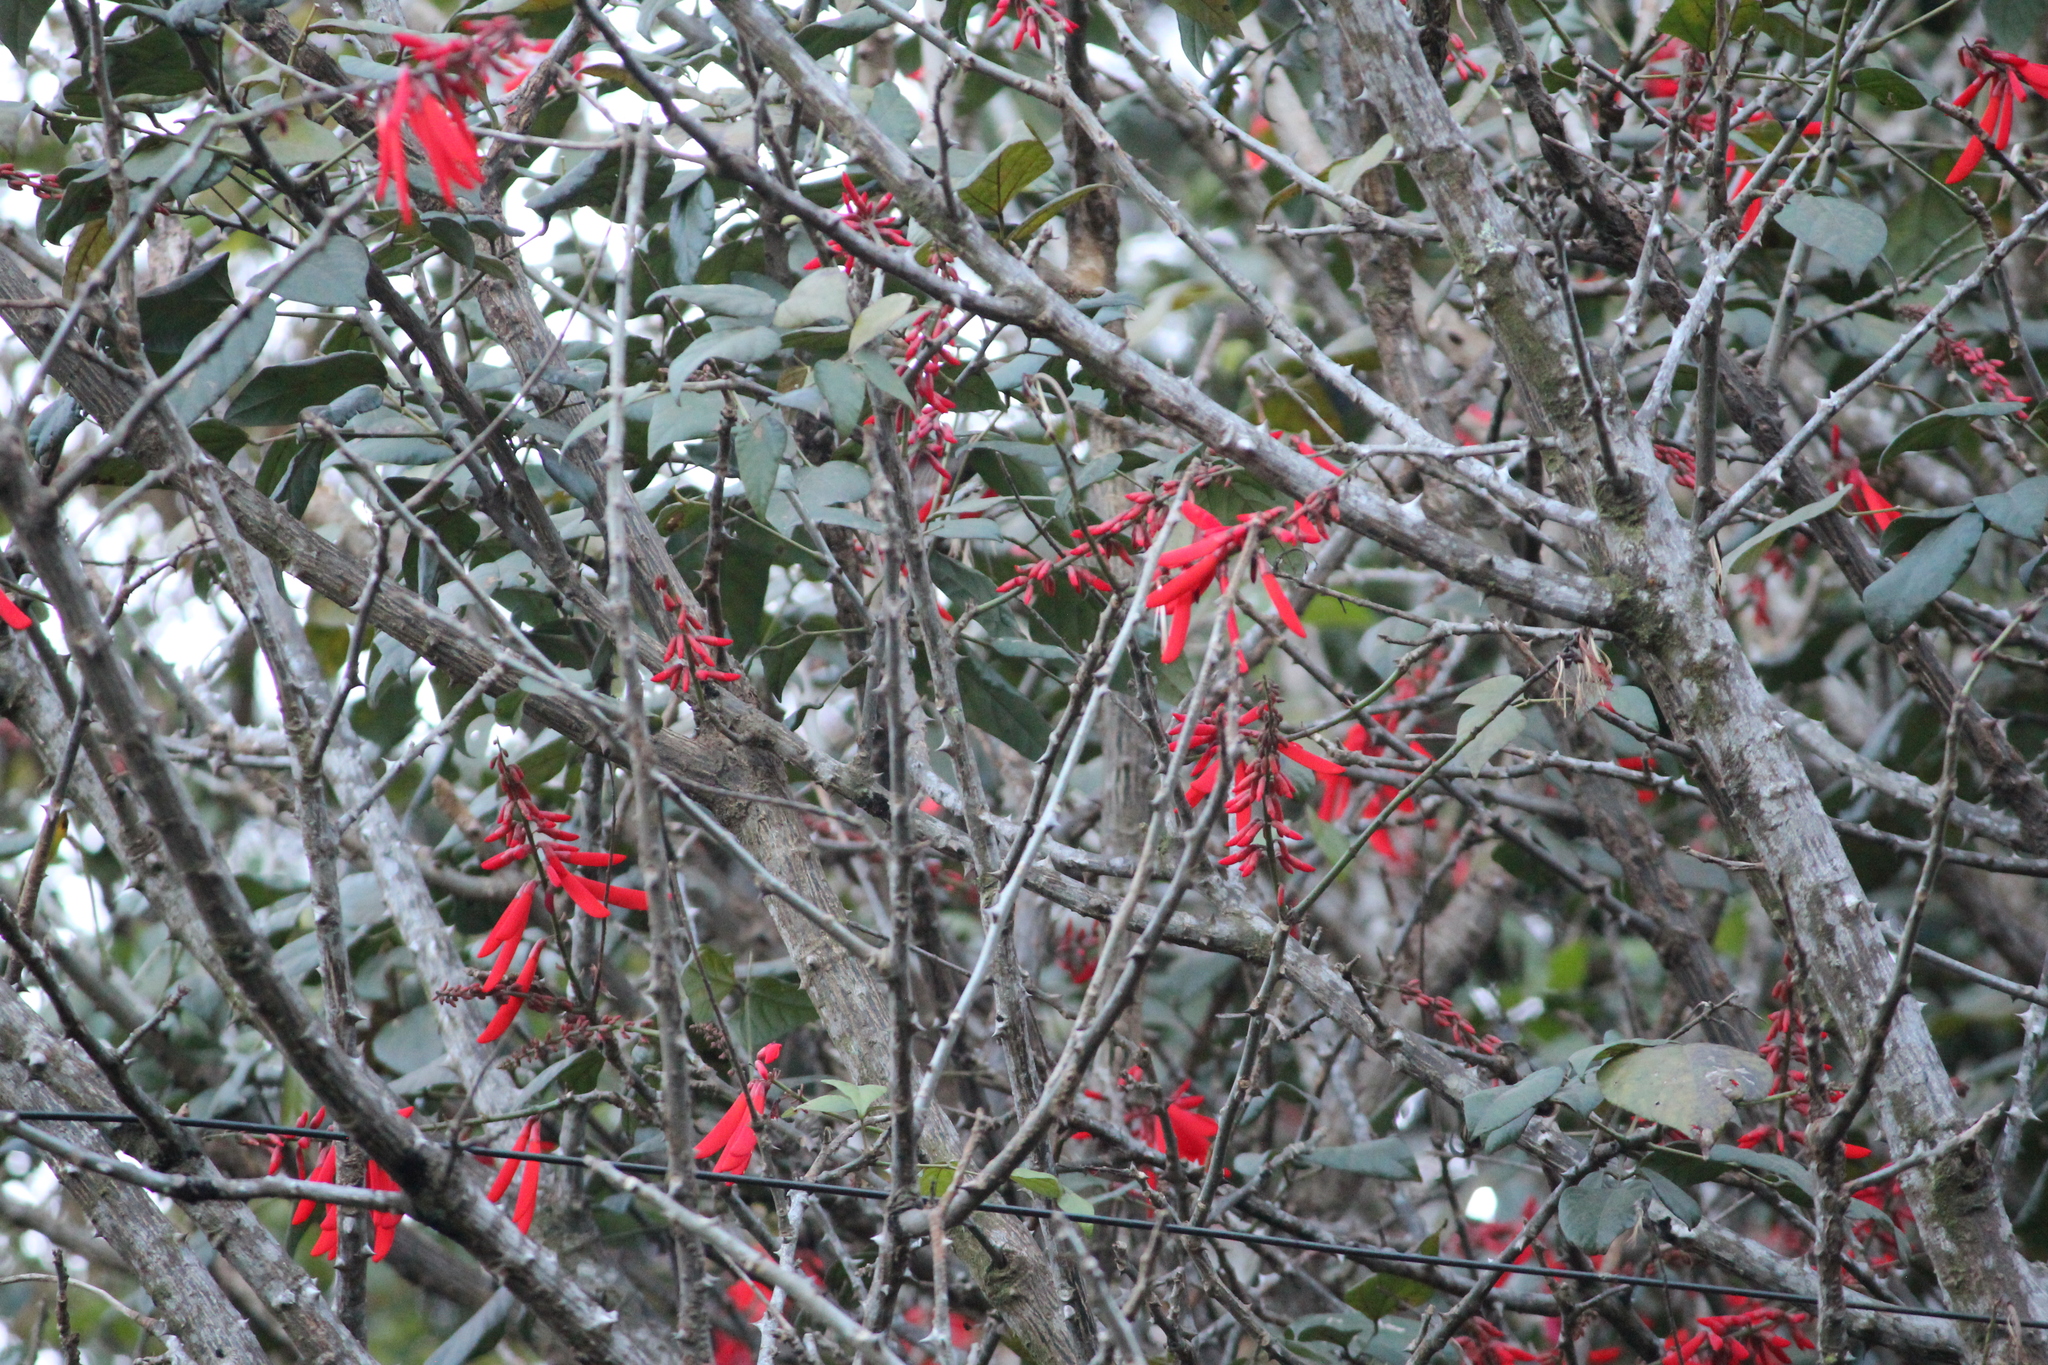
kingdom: Plantae
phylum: Tracheophyta
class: Magnoliopsida
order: Fabales
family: Fabaceae
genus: Erythrina
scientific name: Erythrina lanceolata
